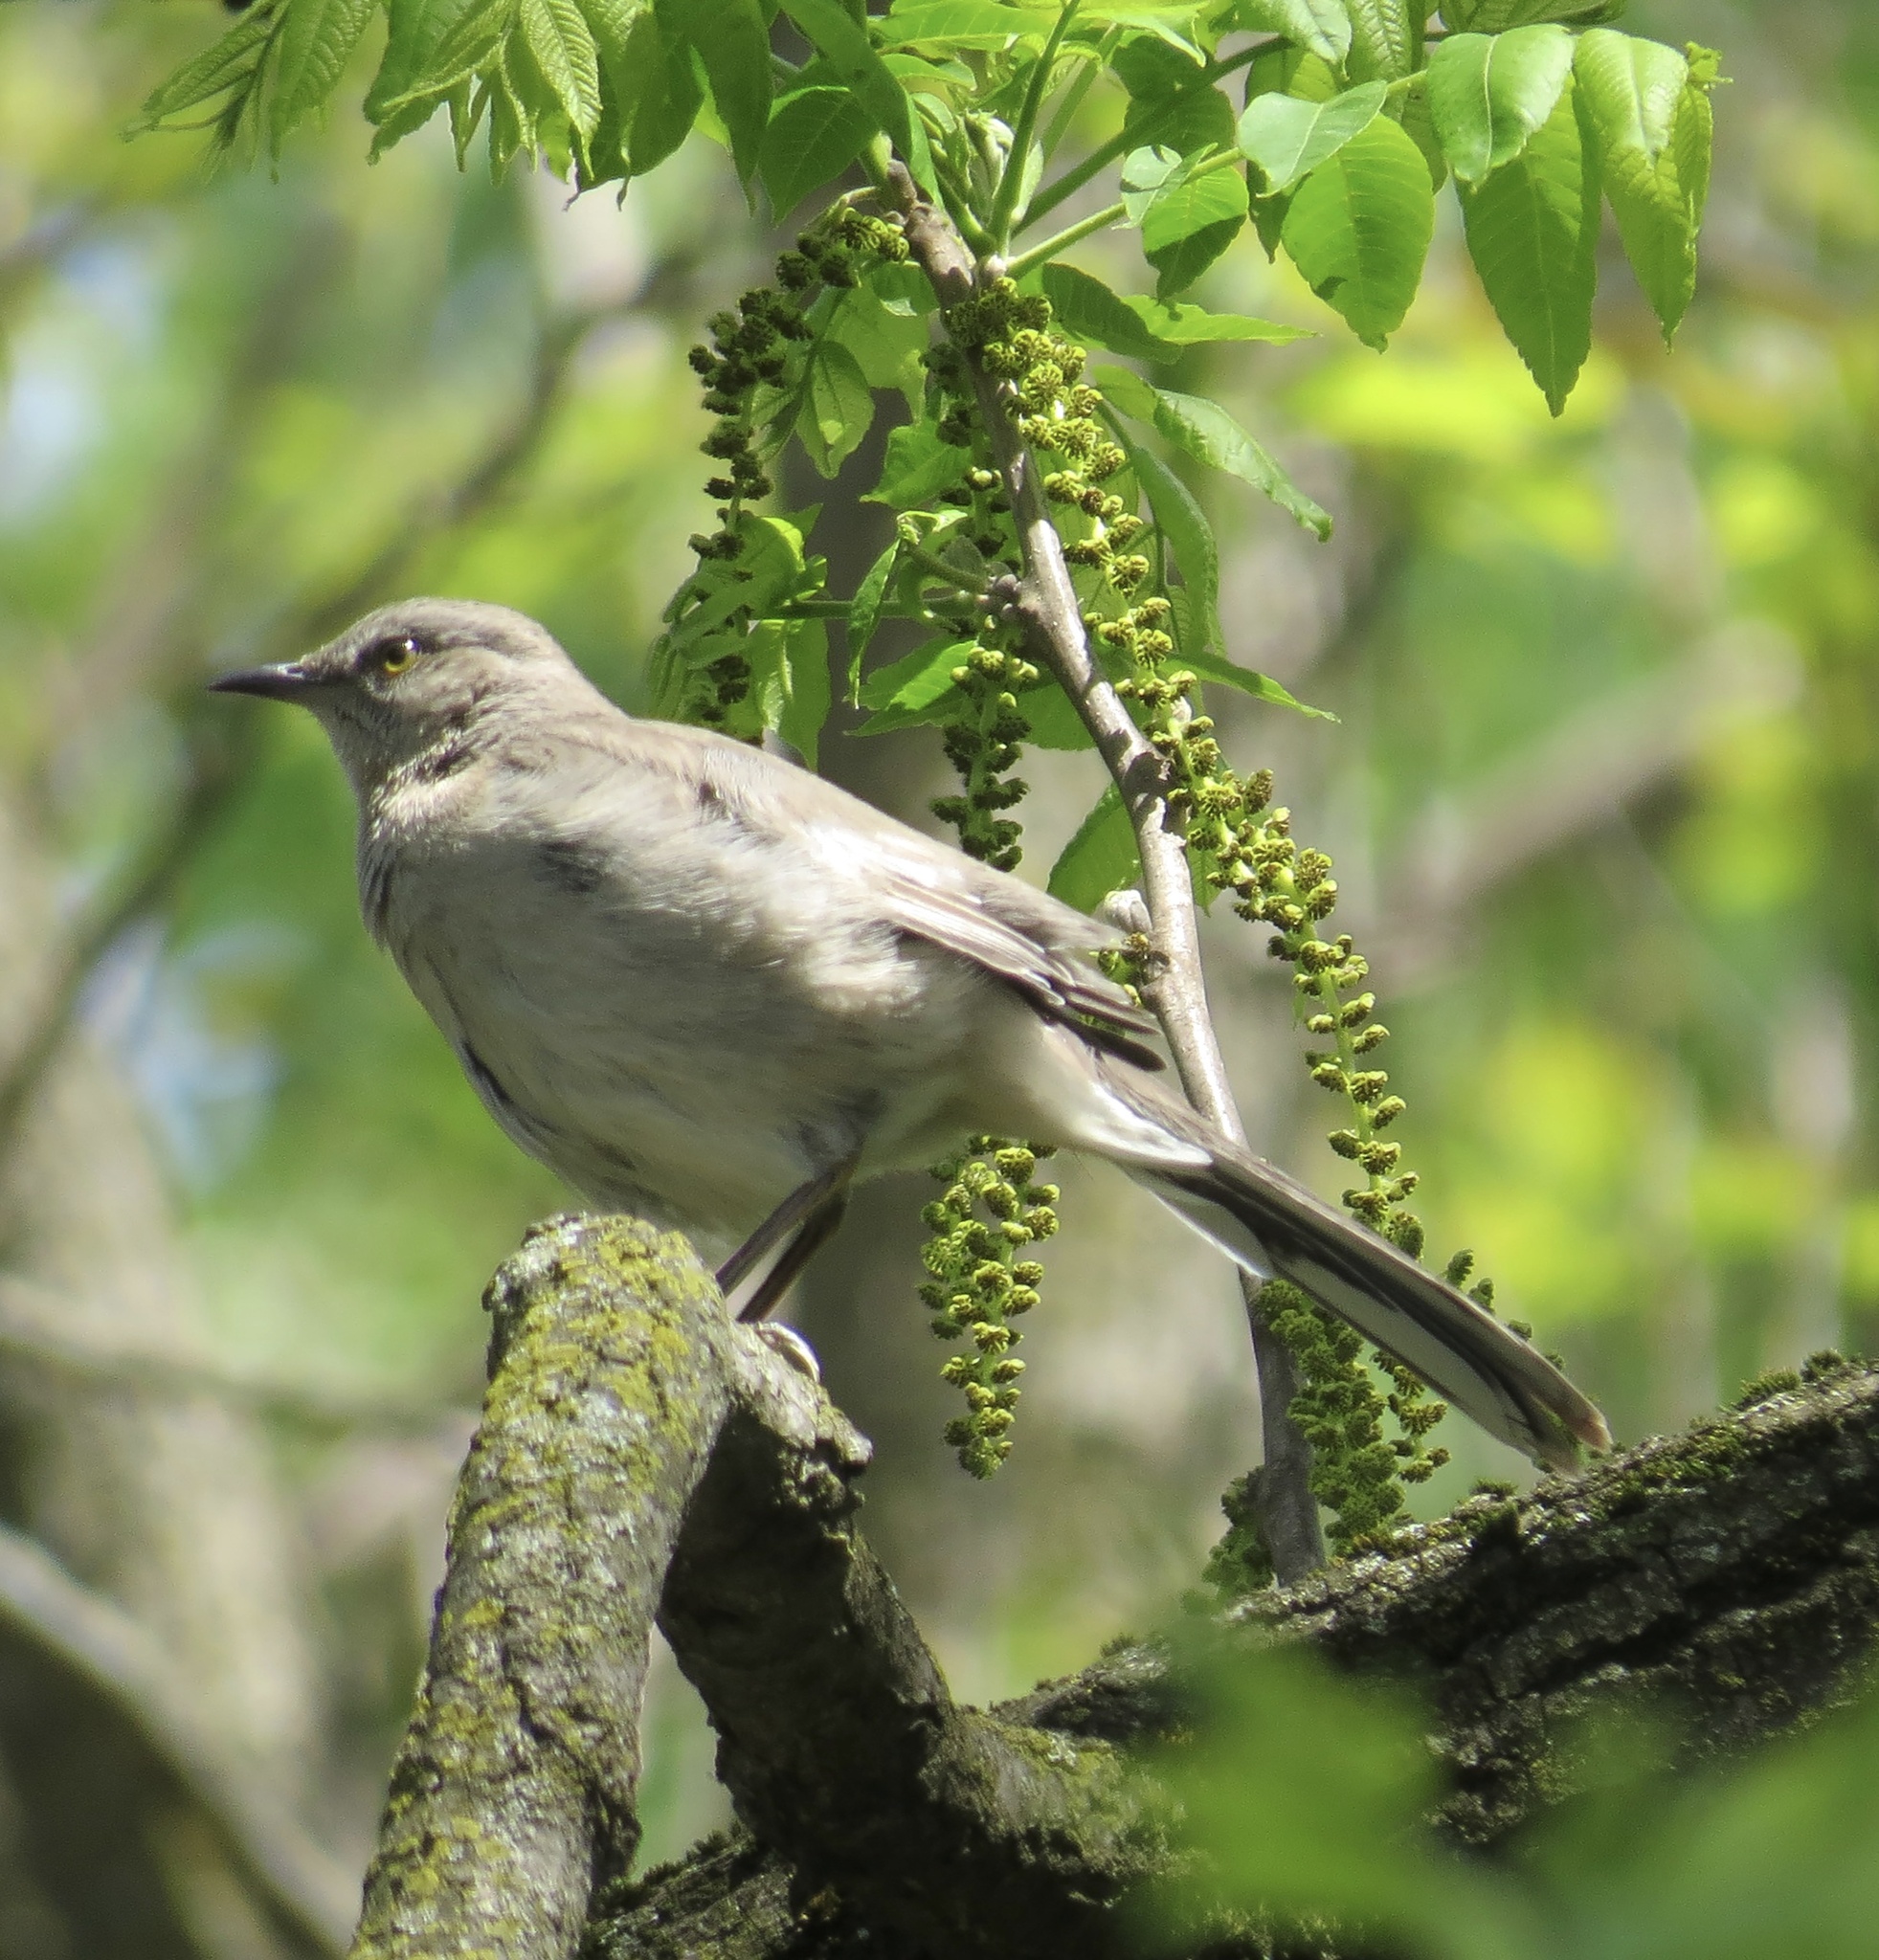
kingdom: Animalia
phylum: Chordata
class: Aves
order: Passeriformes
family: Mimidae
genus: Mimus
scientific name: Mimus polyglottos
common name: Northern mockingbird
